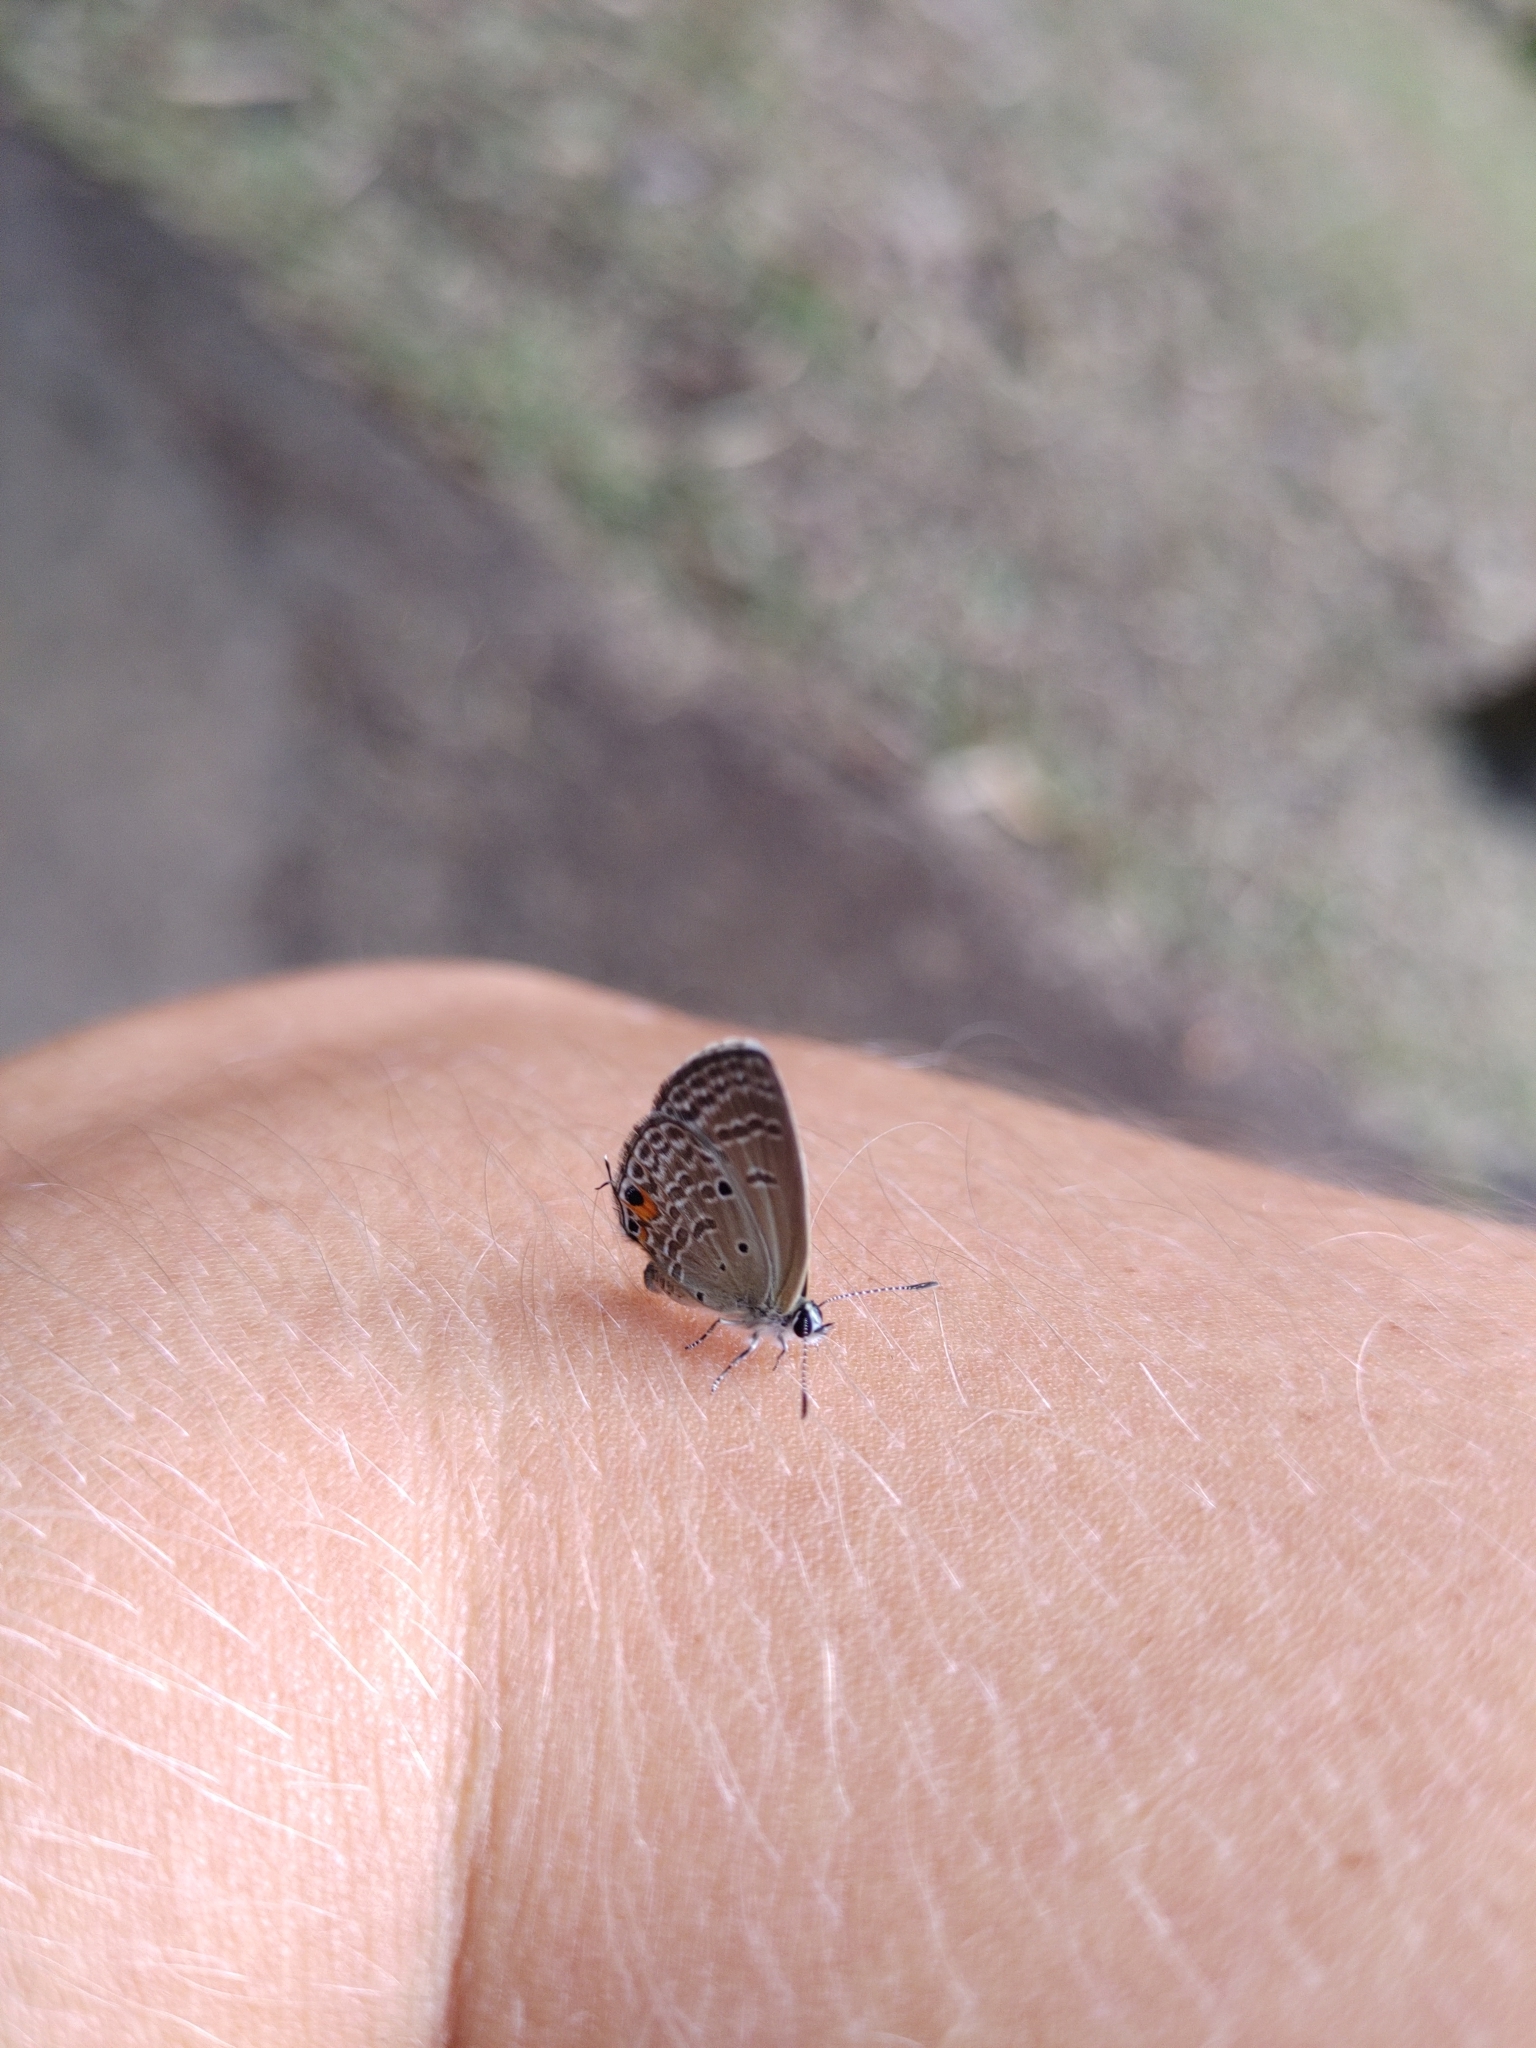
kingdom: Animalia
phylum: Arthropoda
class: Insecta
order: Lepidoptera
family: Lycaenidae
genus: Luthrodes
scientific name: Luthrodes pandava
